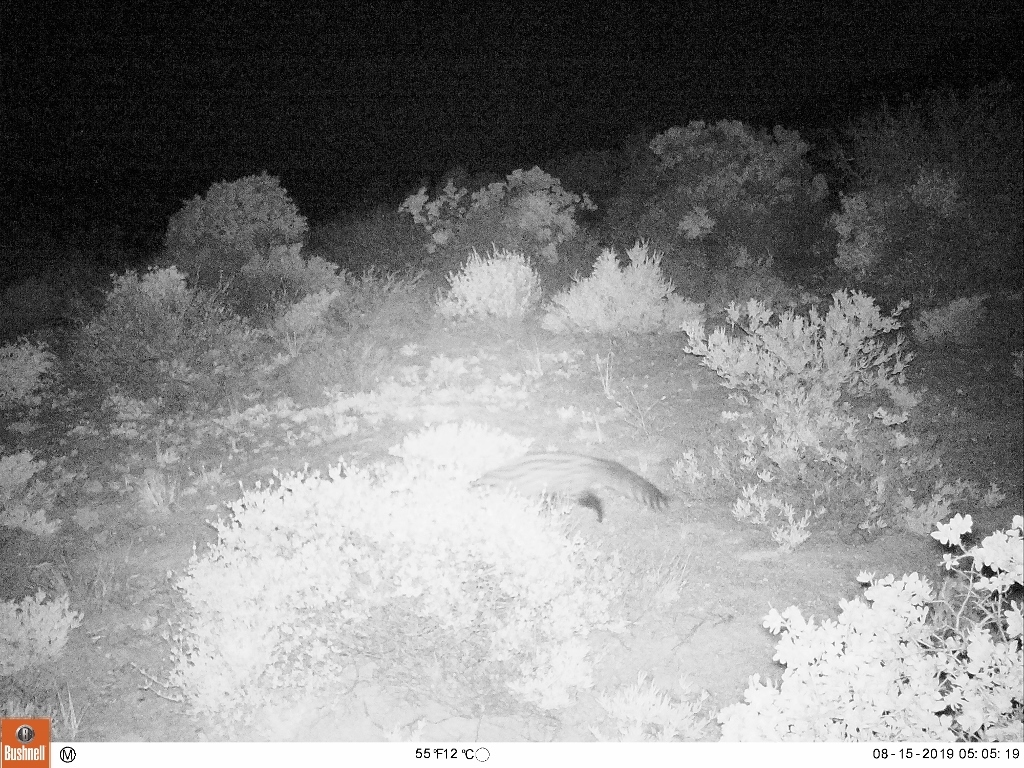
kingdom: Animalia
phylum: Chordata
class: Mammalia
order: Carnivora
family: Viverridae
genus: Genetta
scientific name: Genetta genetta
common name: Common genet
